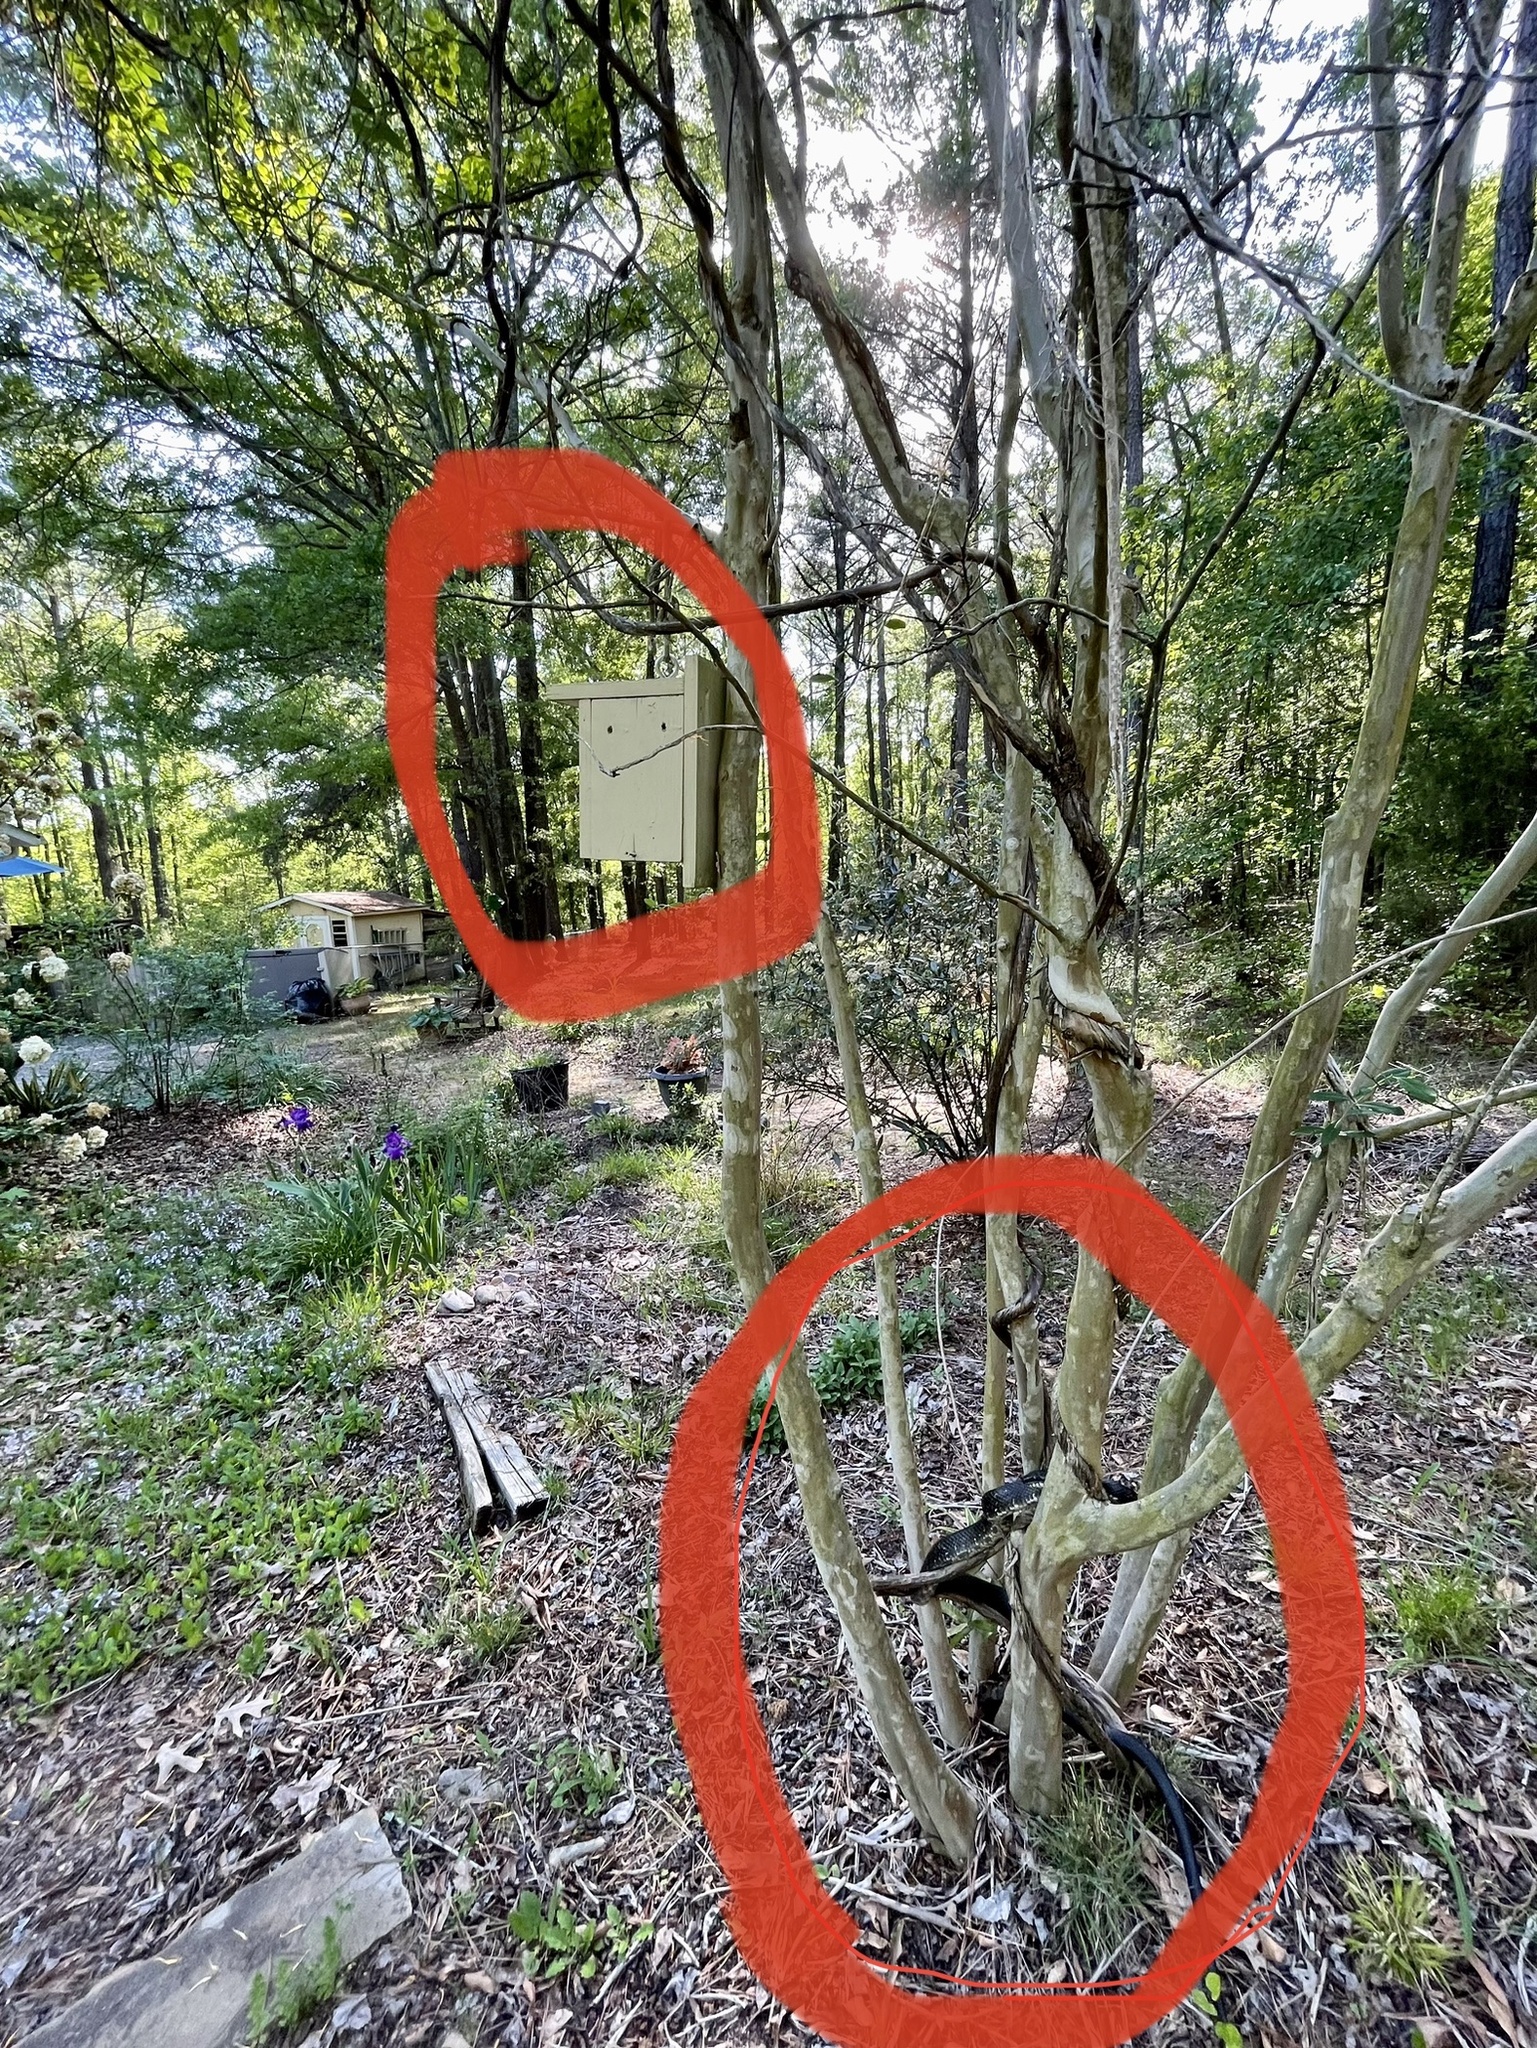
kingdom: Animalia
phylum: Chordata
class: Squamata
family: Colubridae
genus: Pantherophis
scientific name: Pantherophis
